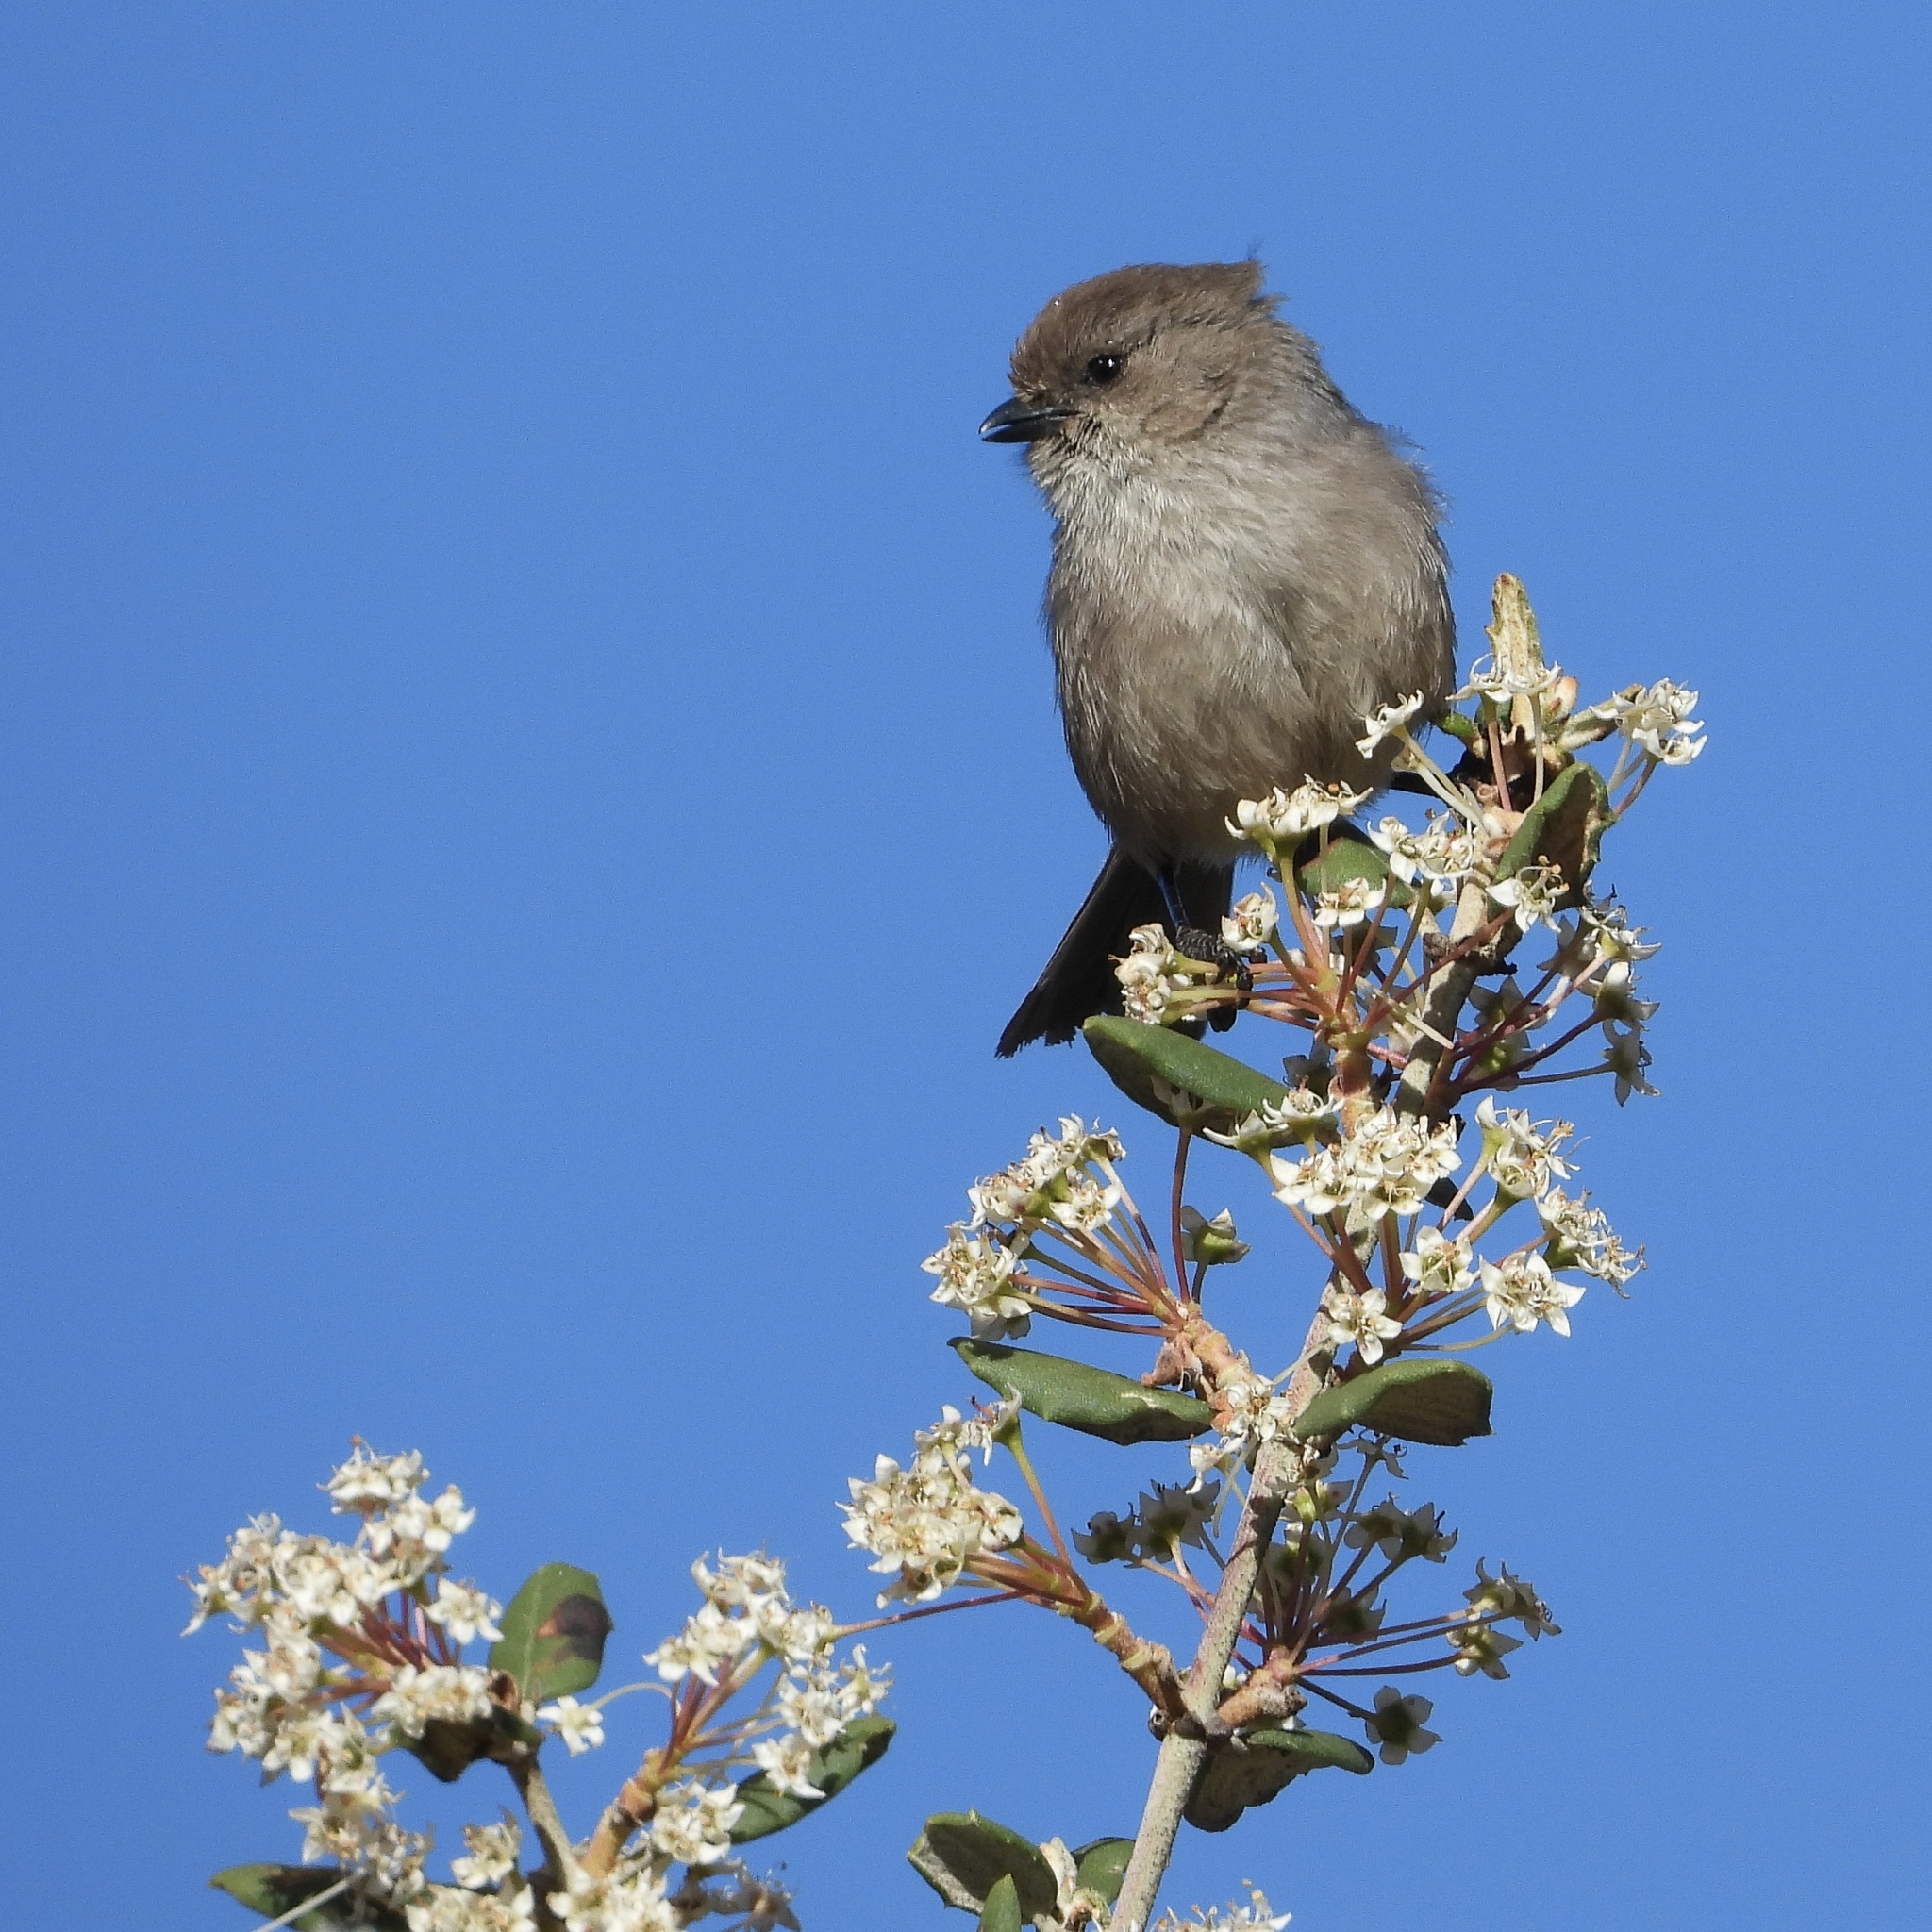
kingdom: Animalia
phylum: Chordata
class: Aves
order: Passeriformes
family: Aegithalidae
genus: Psaltriparus
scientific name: Psaltriparus minimus
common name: American bushtit
